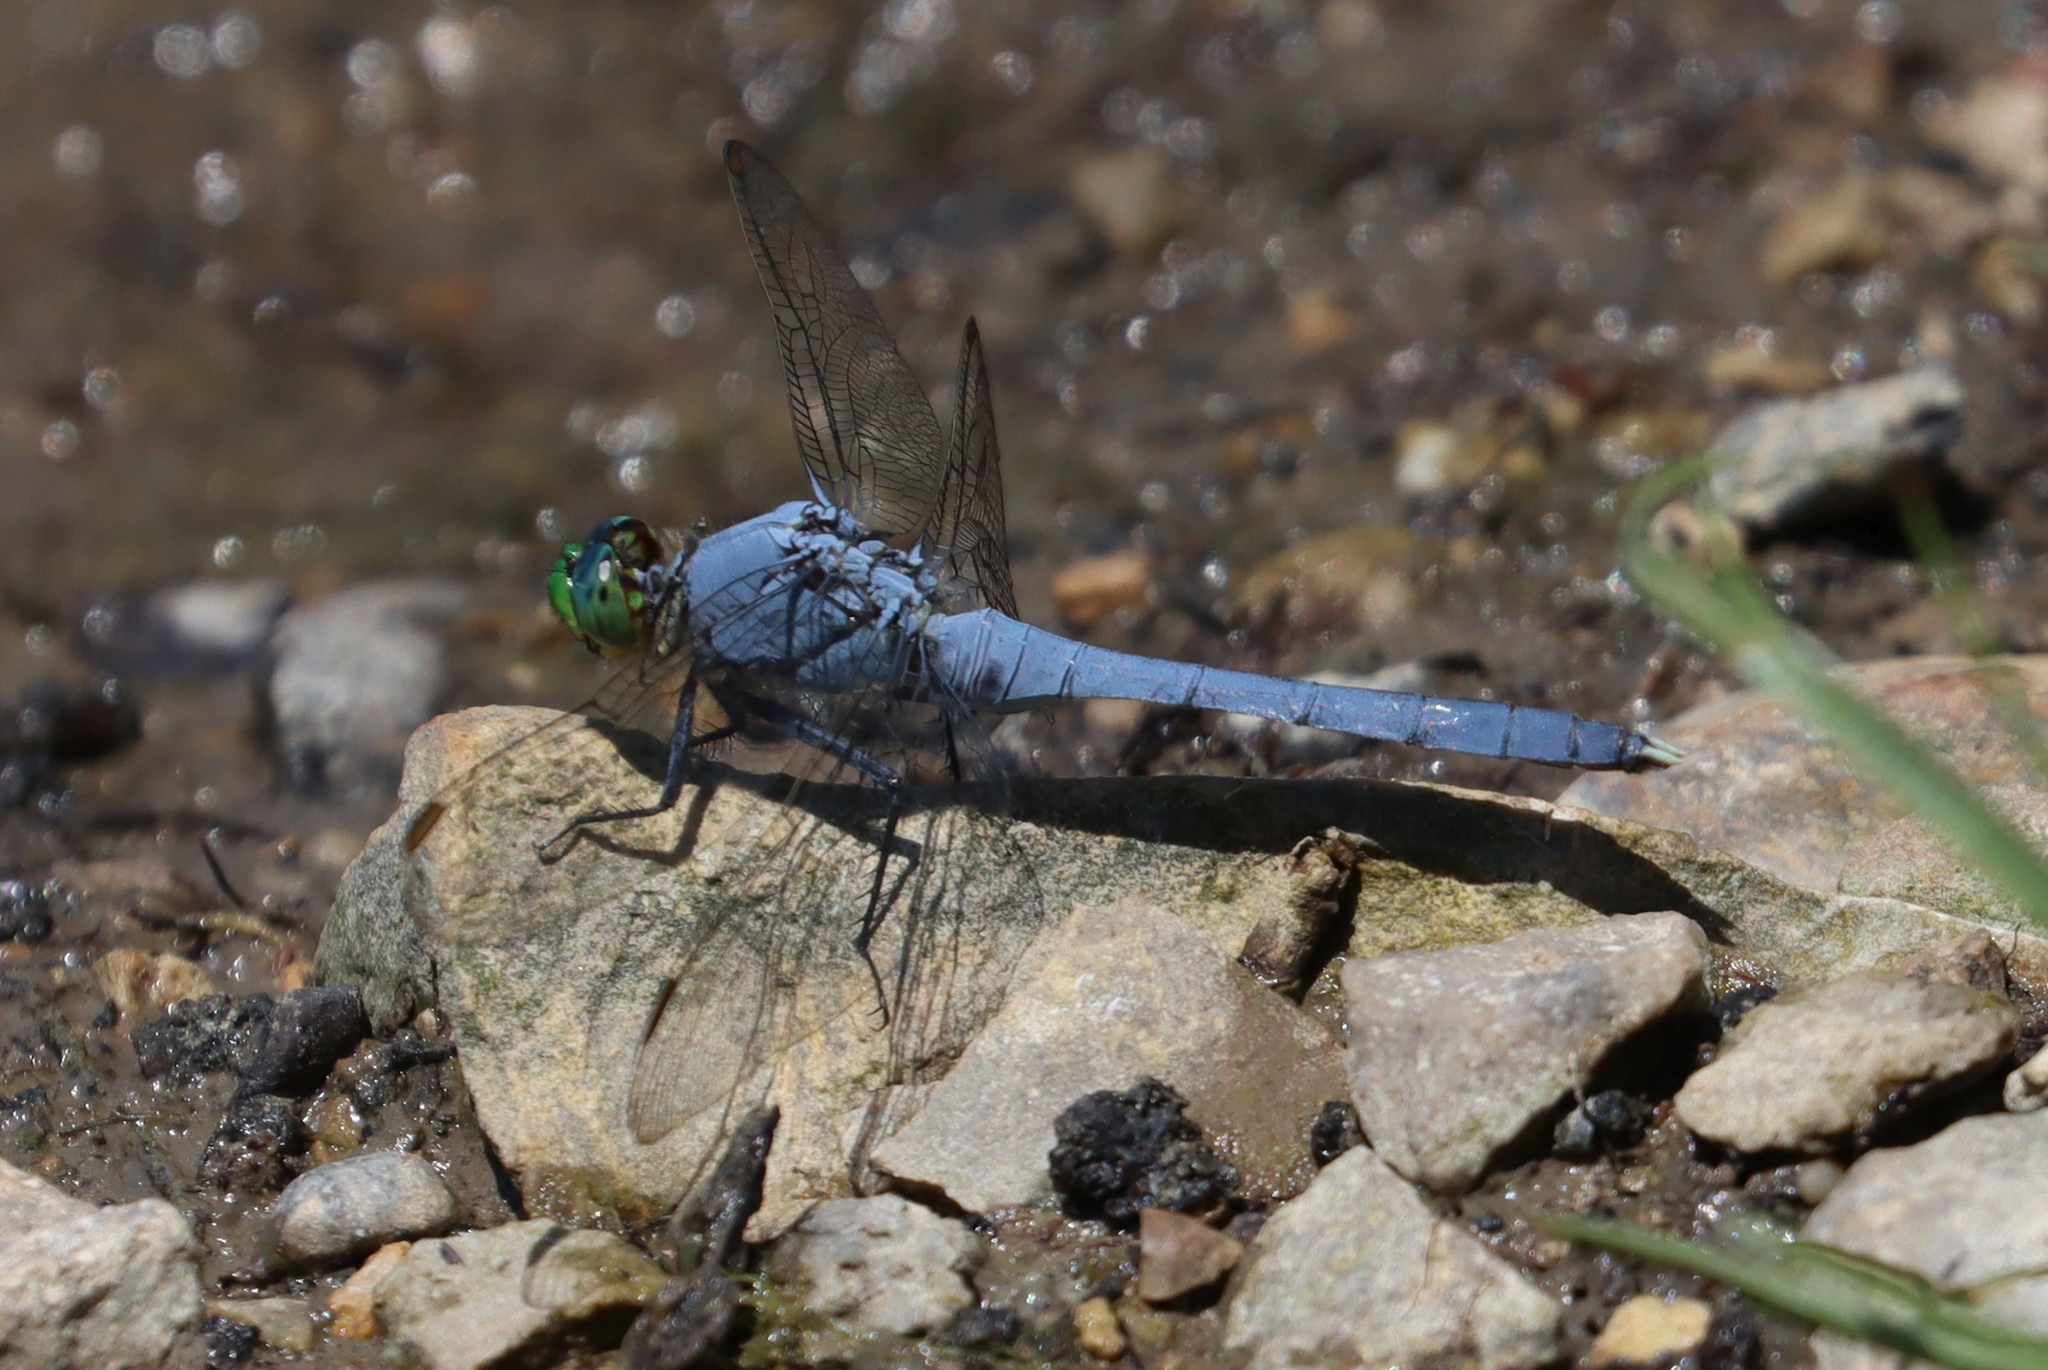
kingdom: Animalia
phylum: Arthropoda
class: Insecta
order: Odonata
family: Libellulidae
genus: Erythemis
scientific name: Erythemis simplicicollis
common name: Eastern pondhawk
